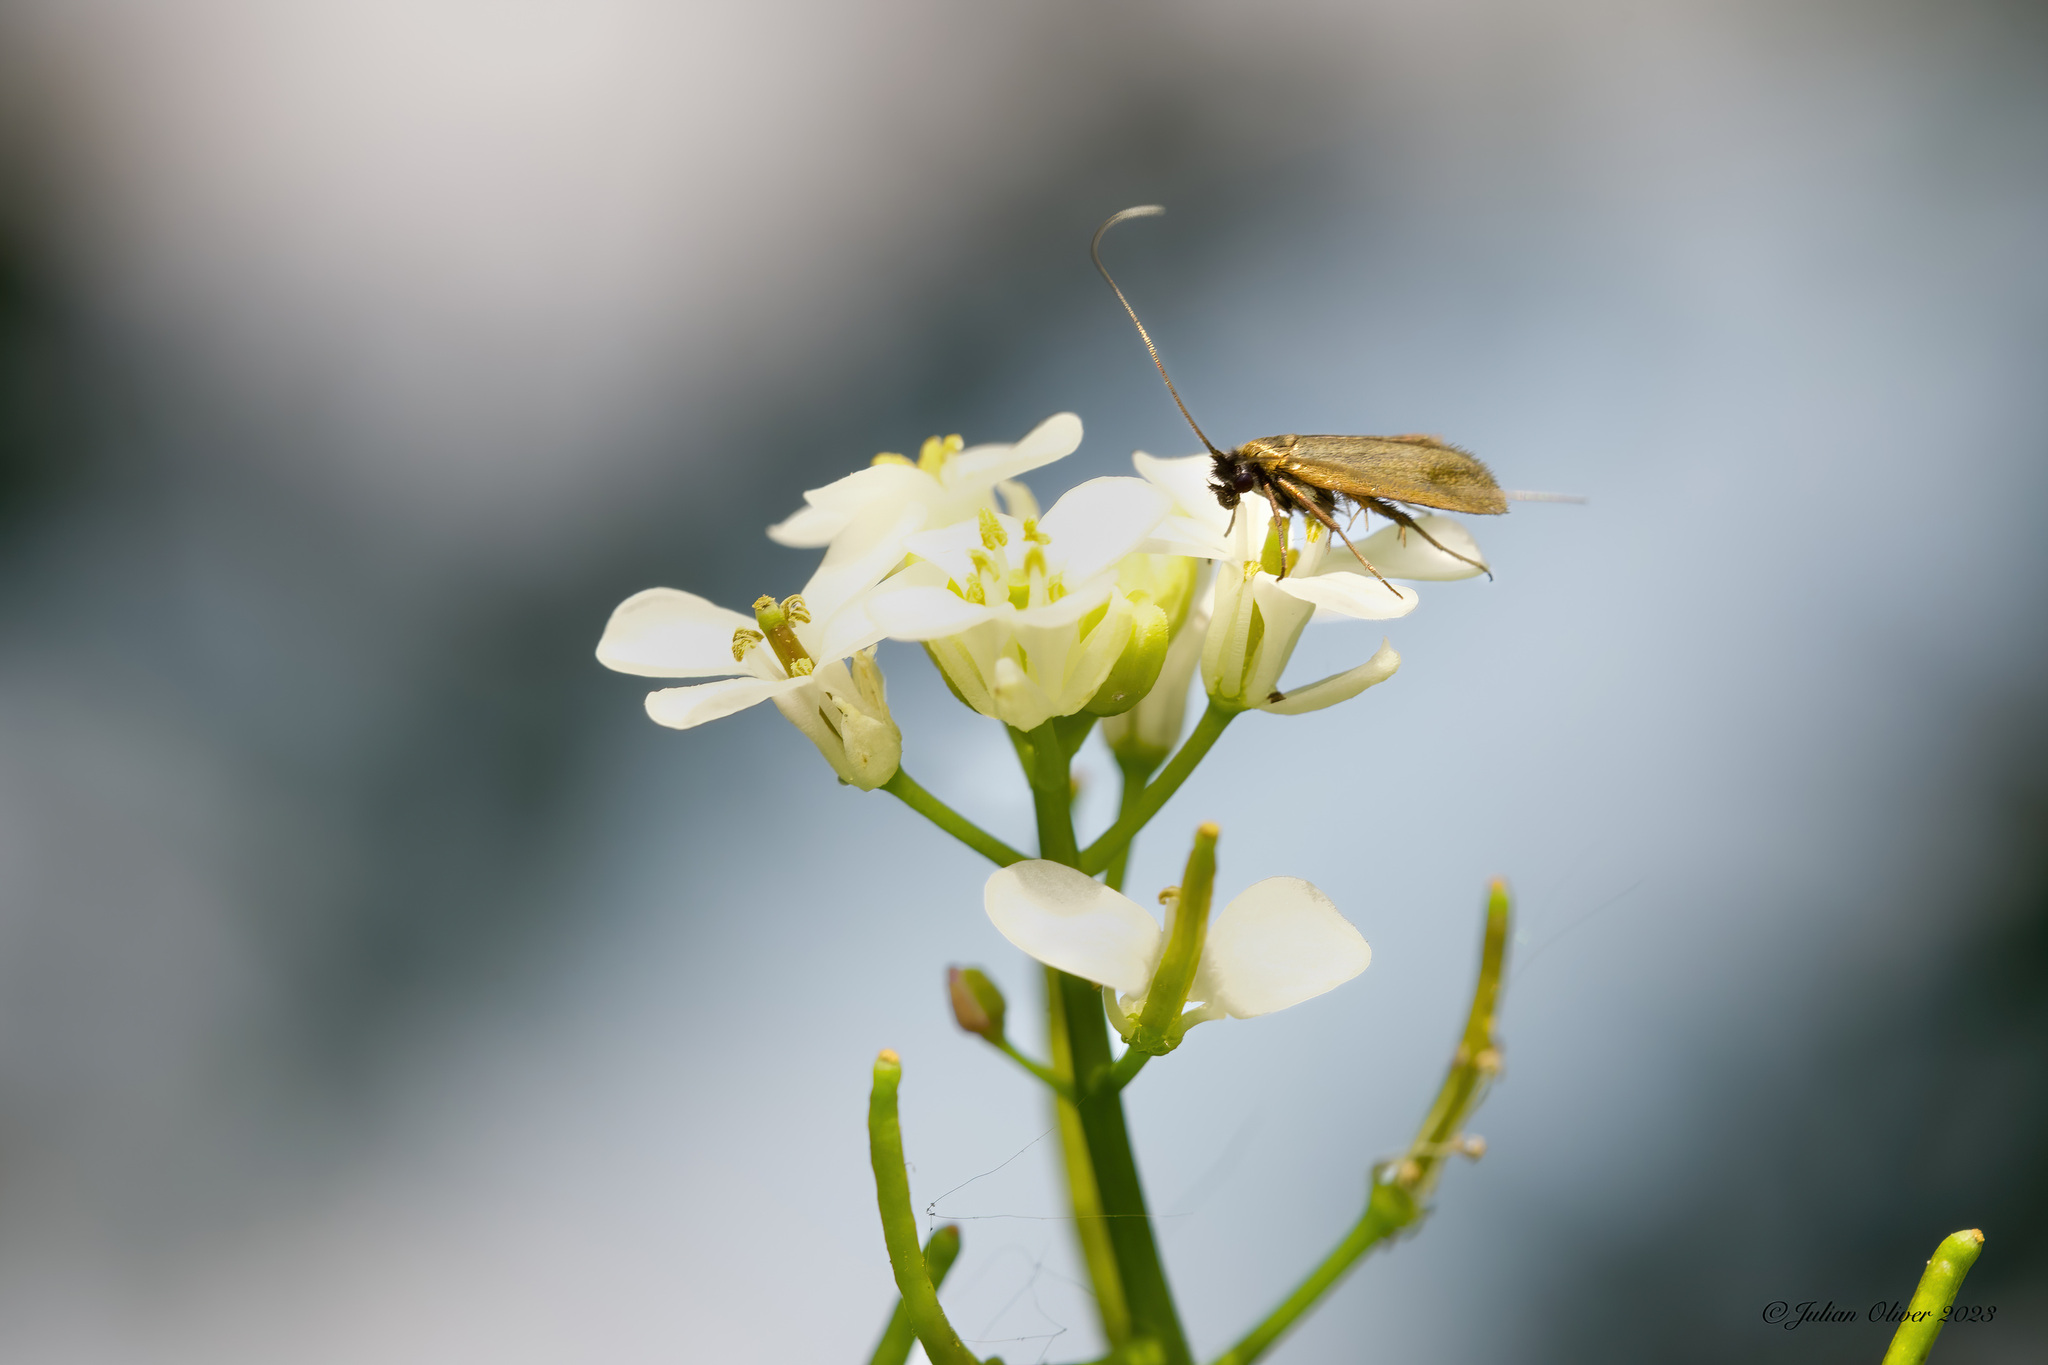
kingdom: Animalia
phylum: Arthropoda
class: Insecta
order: Lepidoptera
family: Adelidae
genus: Cauchas
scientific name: Cauchas rufimitrella
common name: Meadow long-horn
